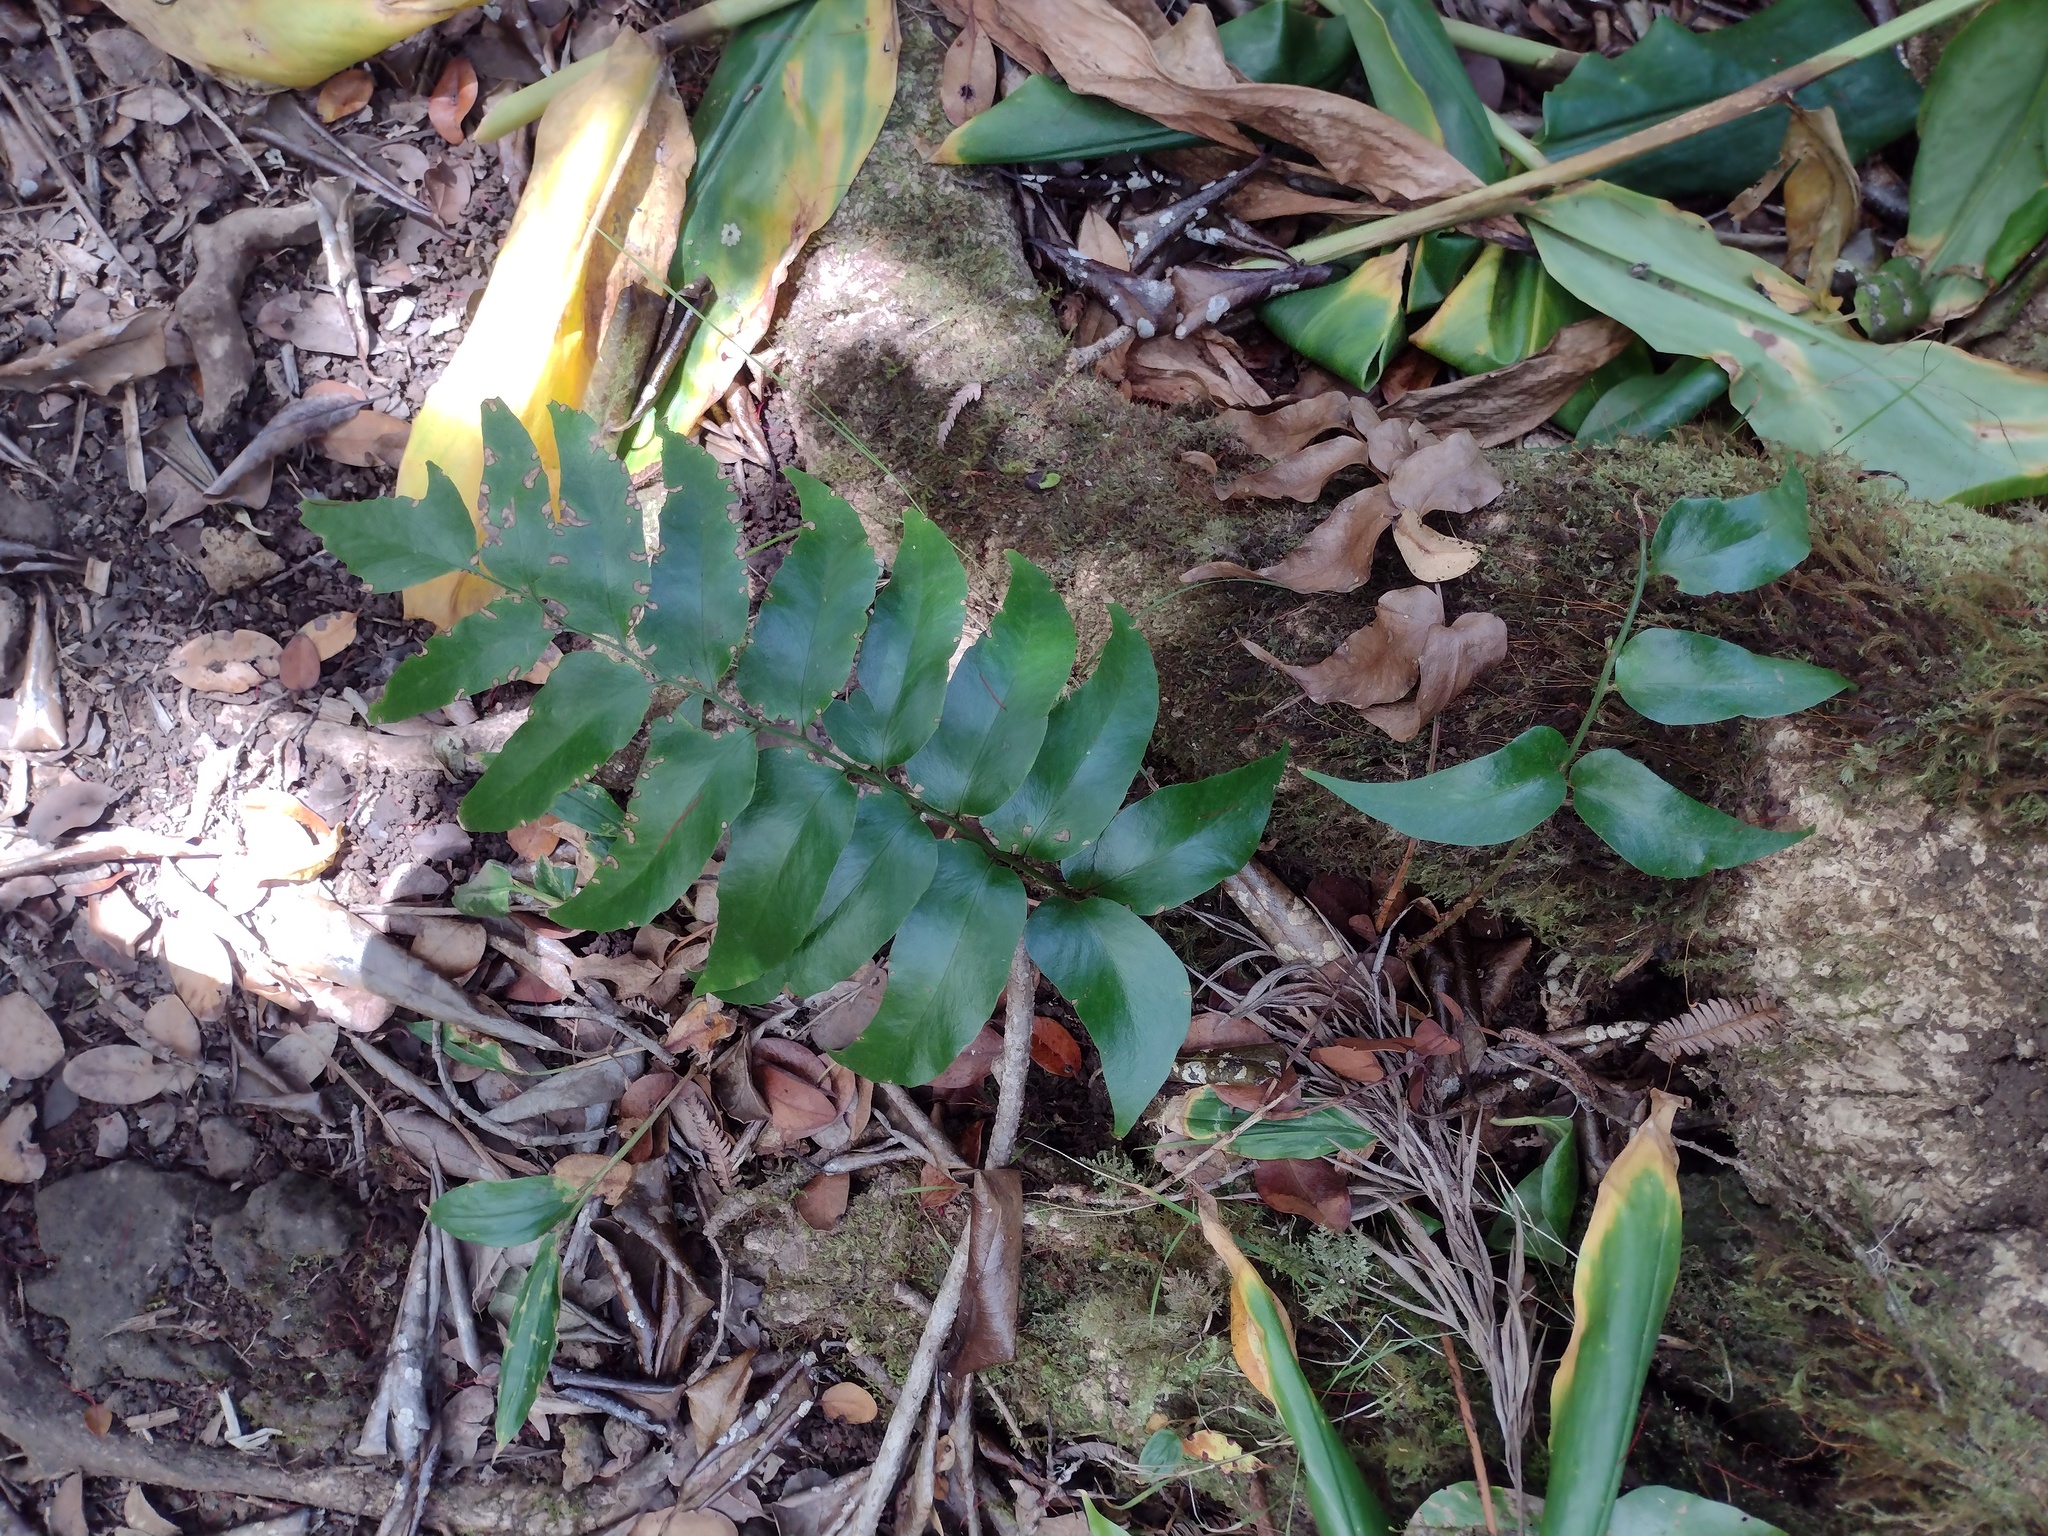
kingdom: Plantae
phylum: Tracheophyta
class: Polypodiopsida
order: Polypodiales
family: Dryopteridaceae
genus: Cyrtomium
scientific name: Cyrtomium falcatum
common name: House holly-fern
